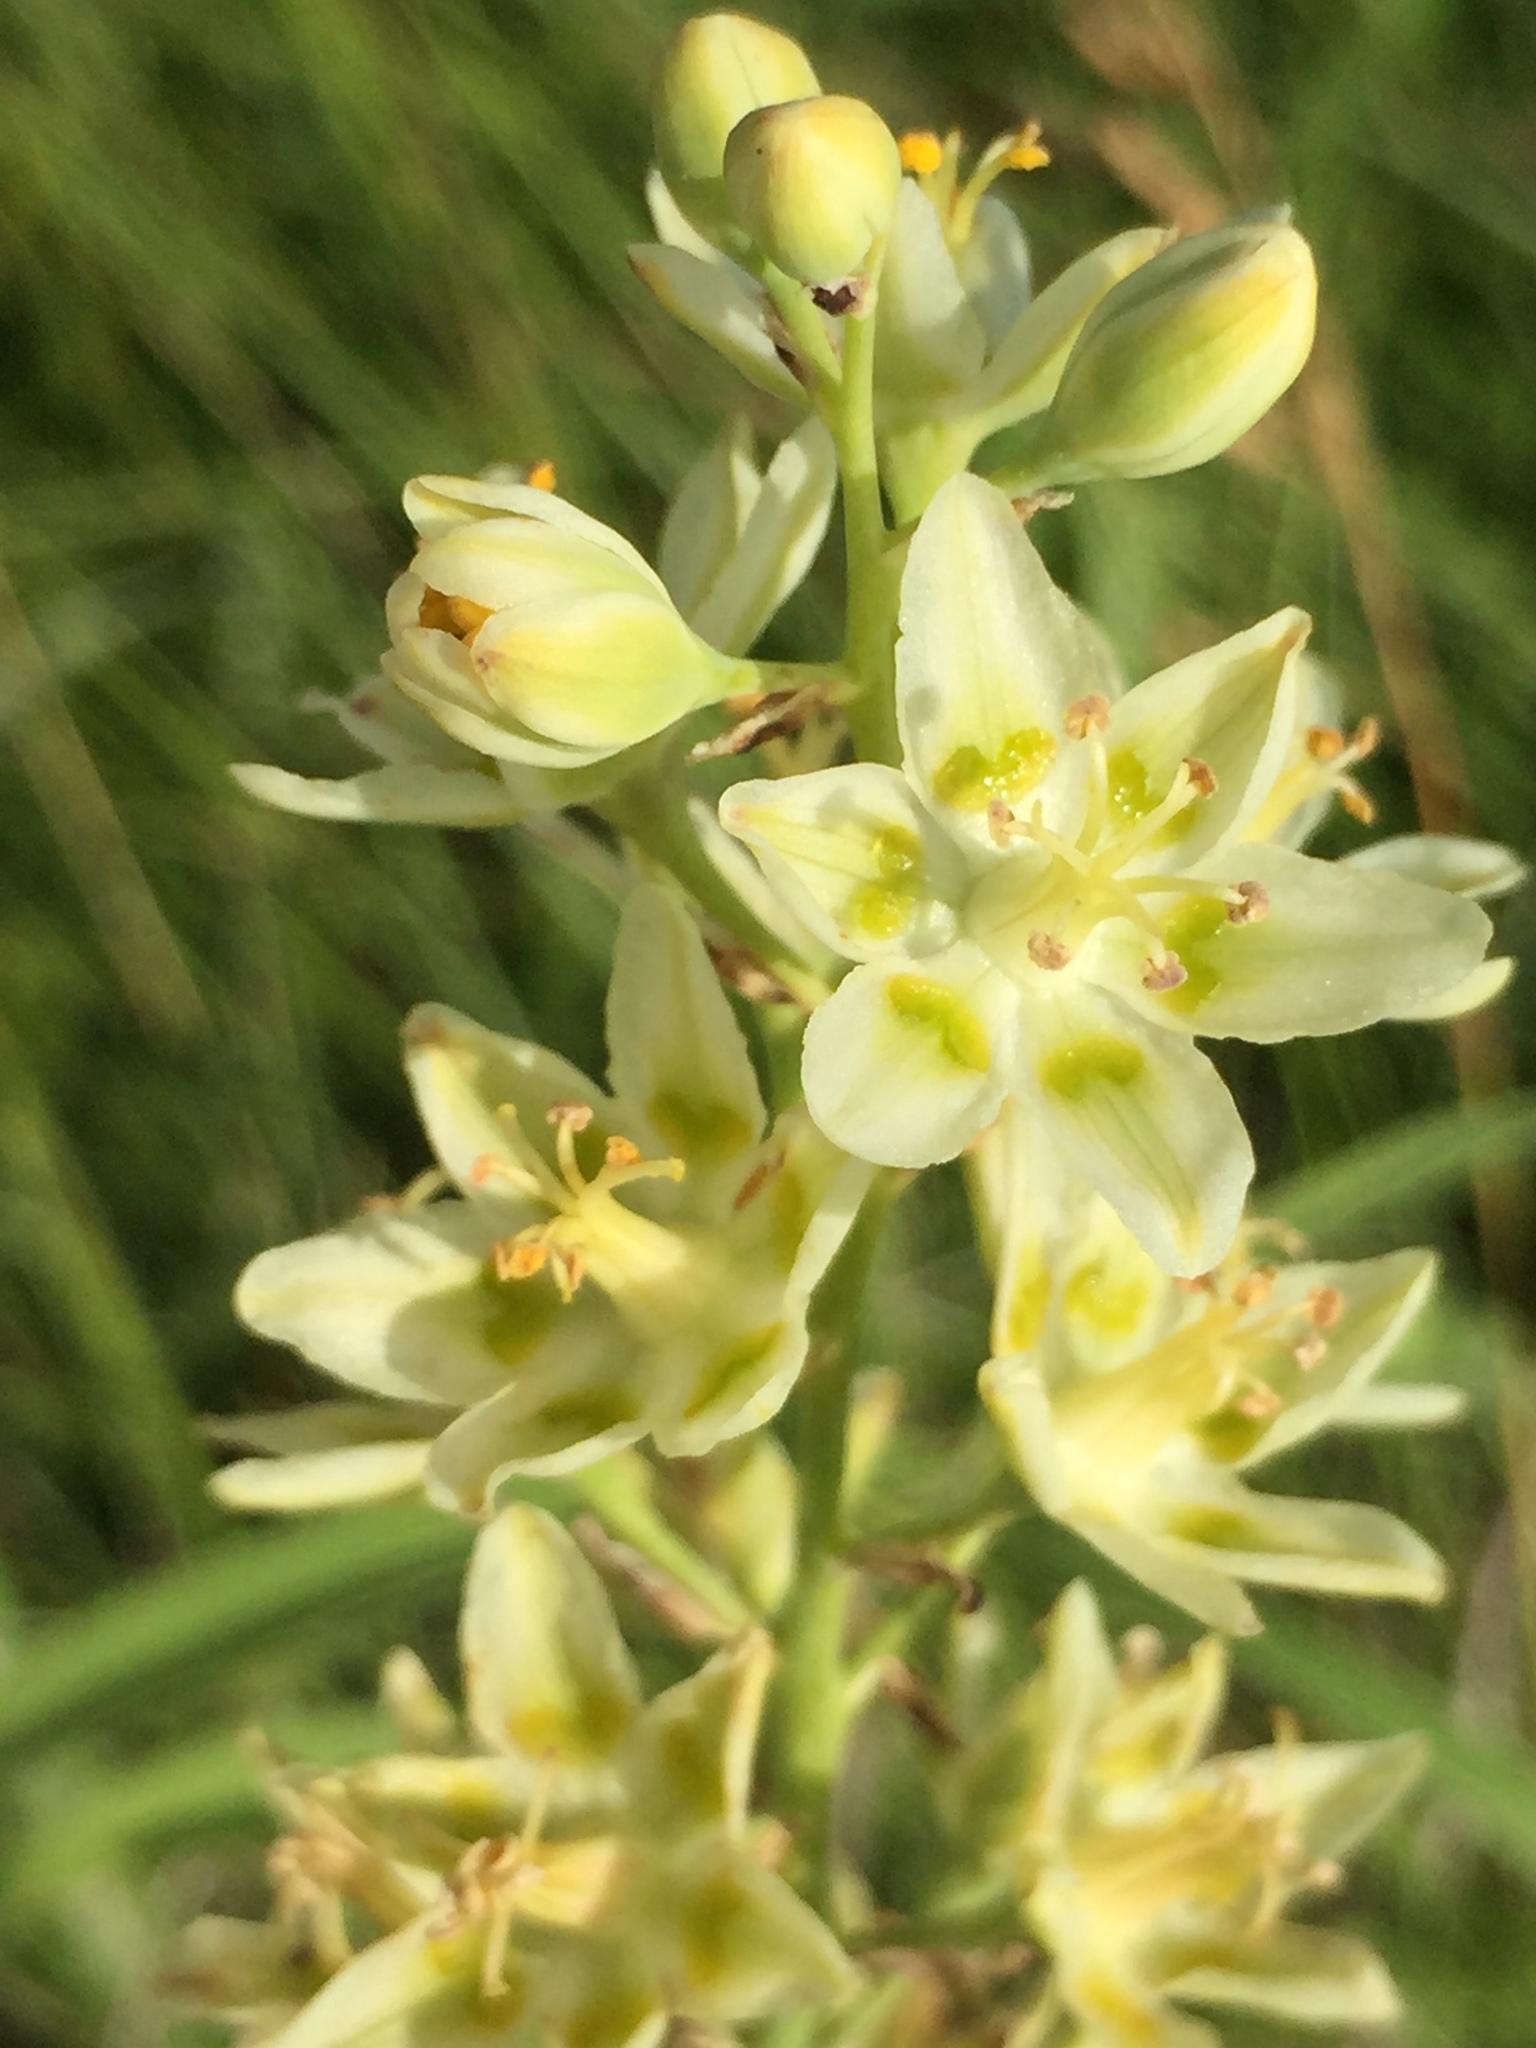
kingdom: Plantae
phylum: Tracheophyta
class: Liliopsida
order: Liliales
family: Melanthiaceae
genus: Anticlea
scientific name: Anticlea elegans
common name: Mountain death camas
